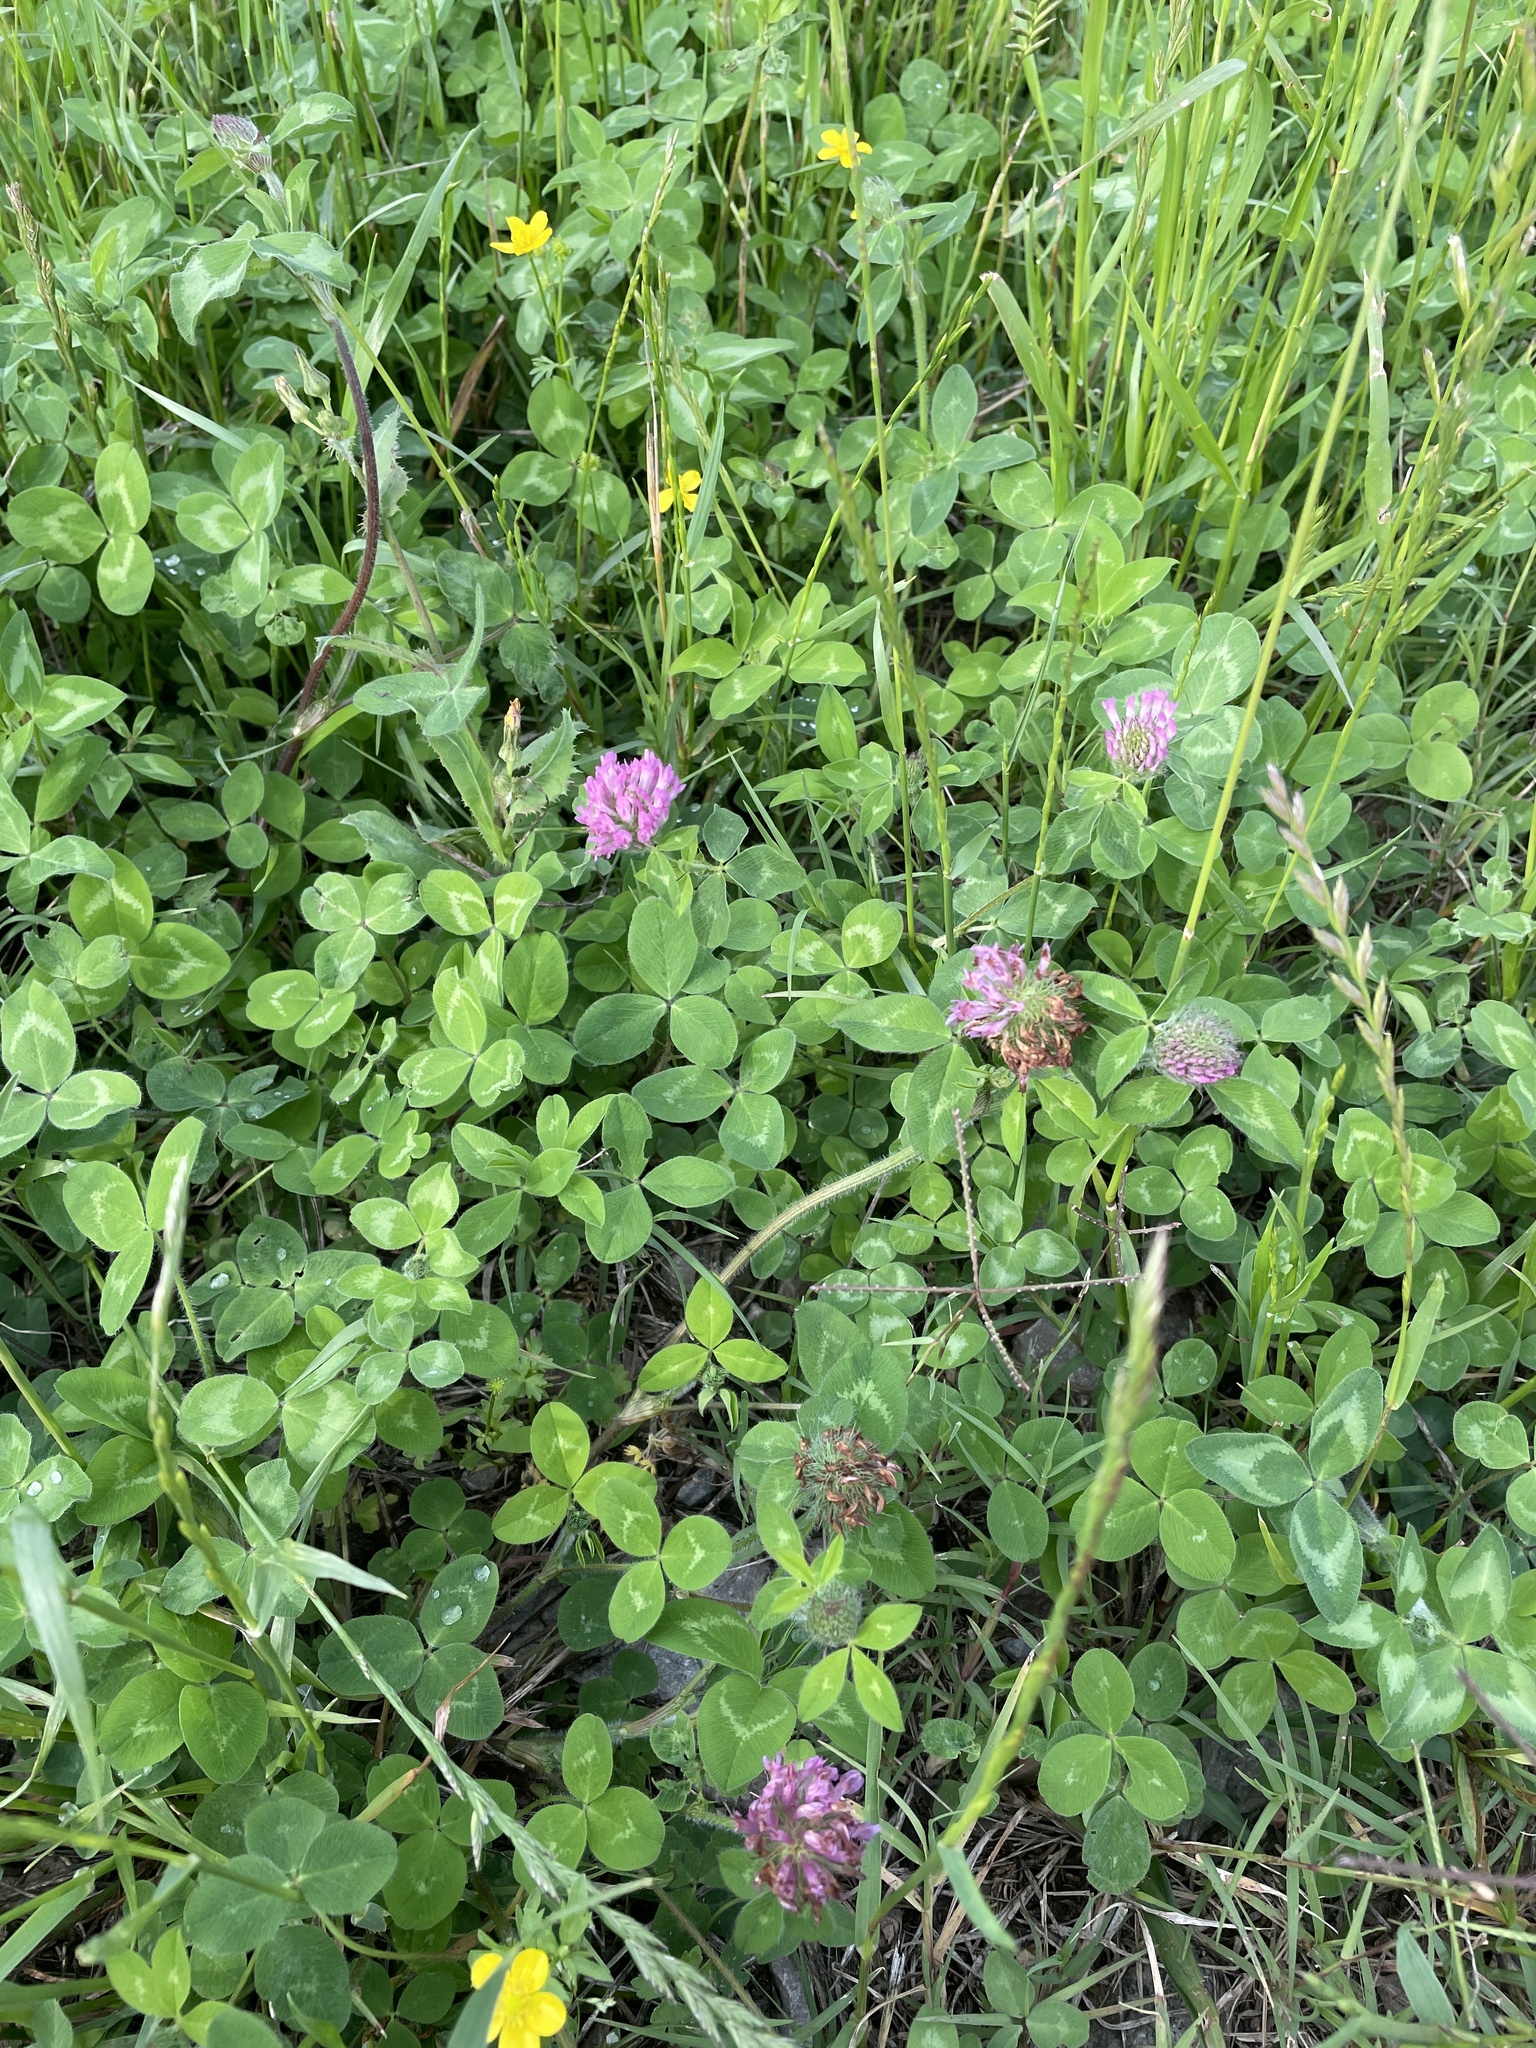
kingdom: Plantae
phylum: Tracheophyta
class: Magnoliopsida
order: Fabales
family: Fabaceae
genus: Trifolium
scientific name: Trifolium pratense
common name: Red clover
